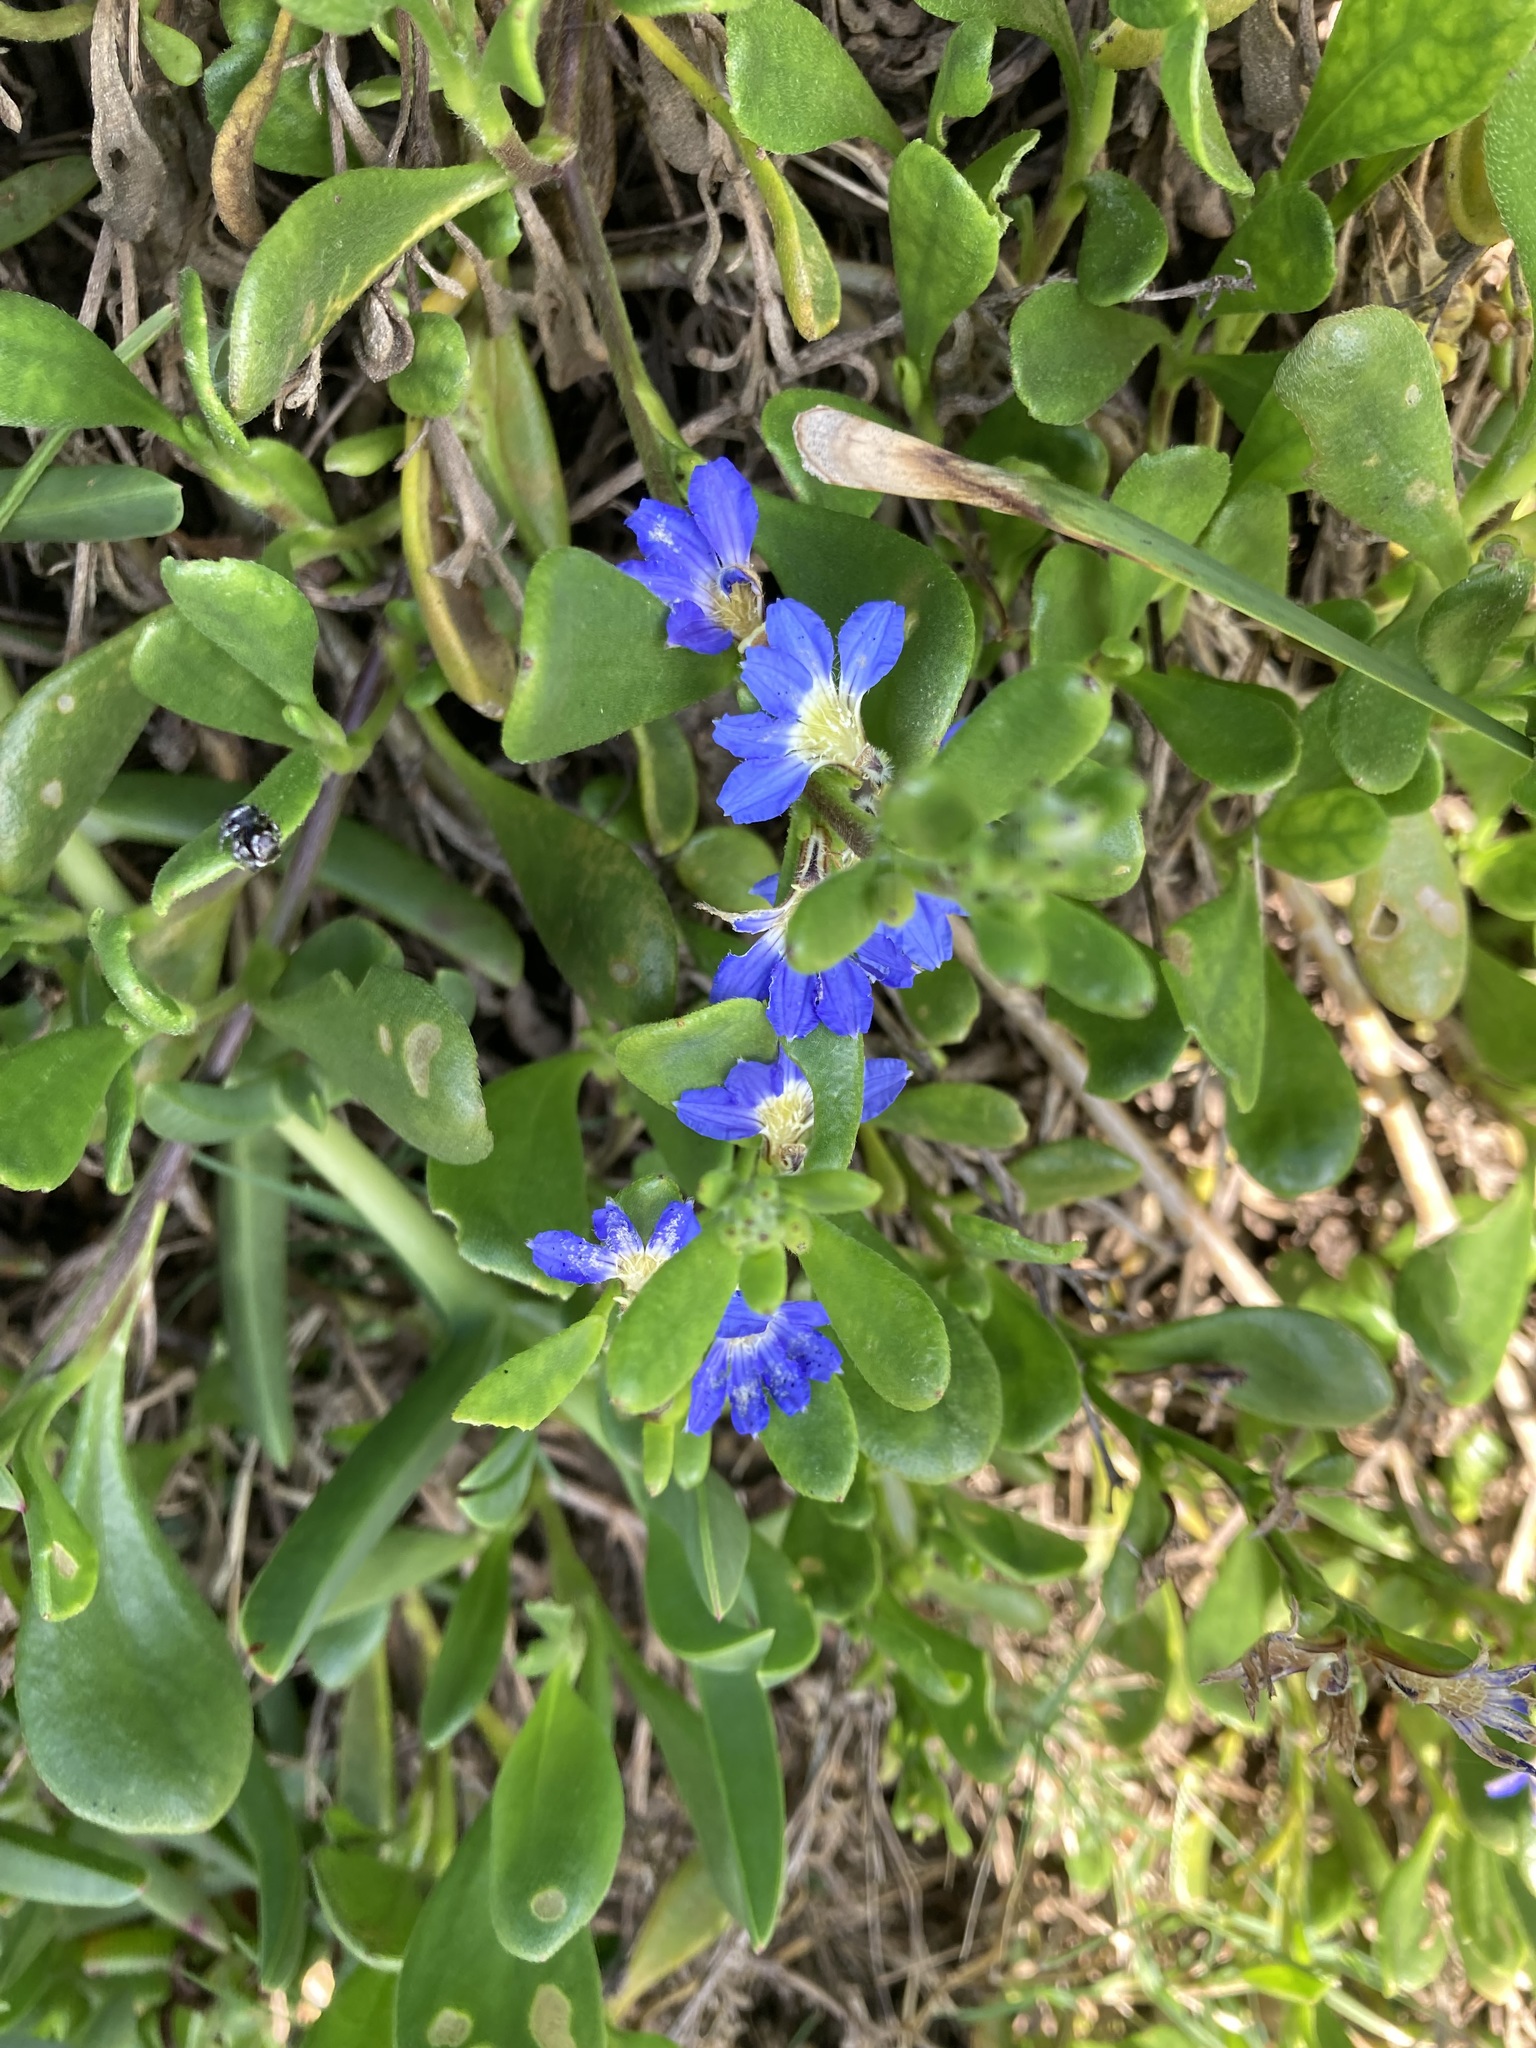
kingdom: Plantae
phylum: Tracheophyta
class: Magnoliopsida
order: Asterales
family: Goodeniaceae
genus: Scaevola
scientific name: Scaevola calendulacea
